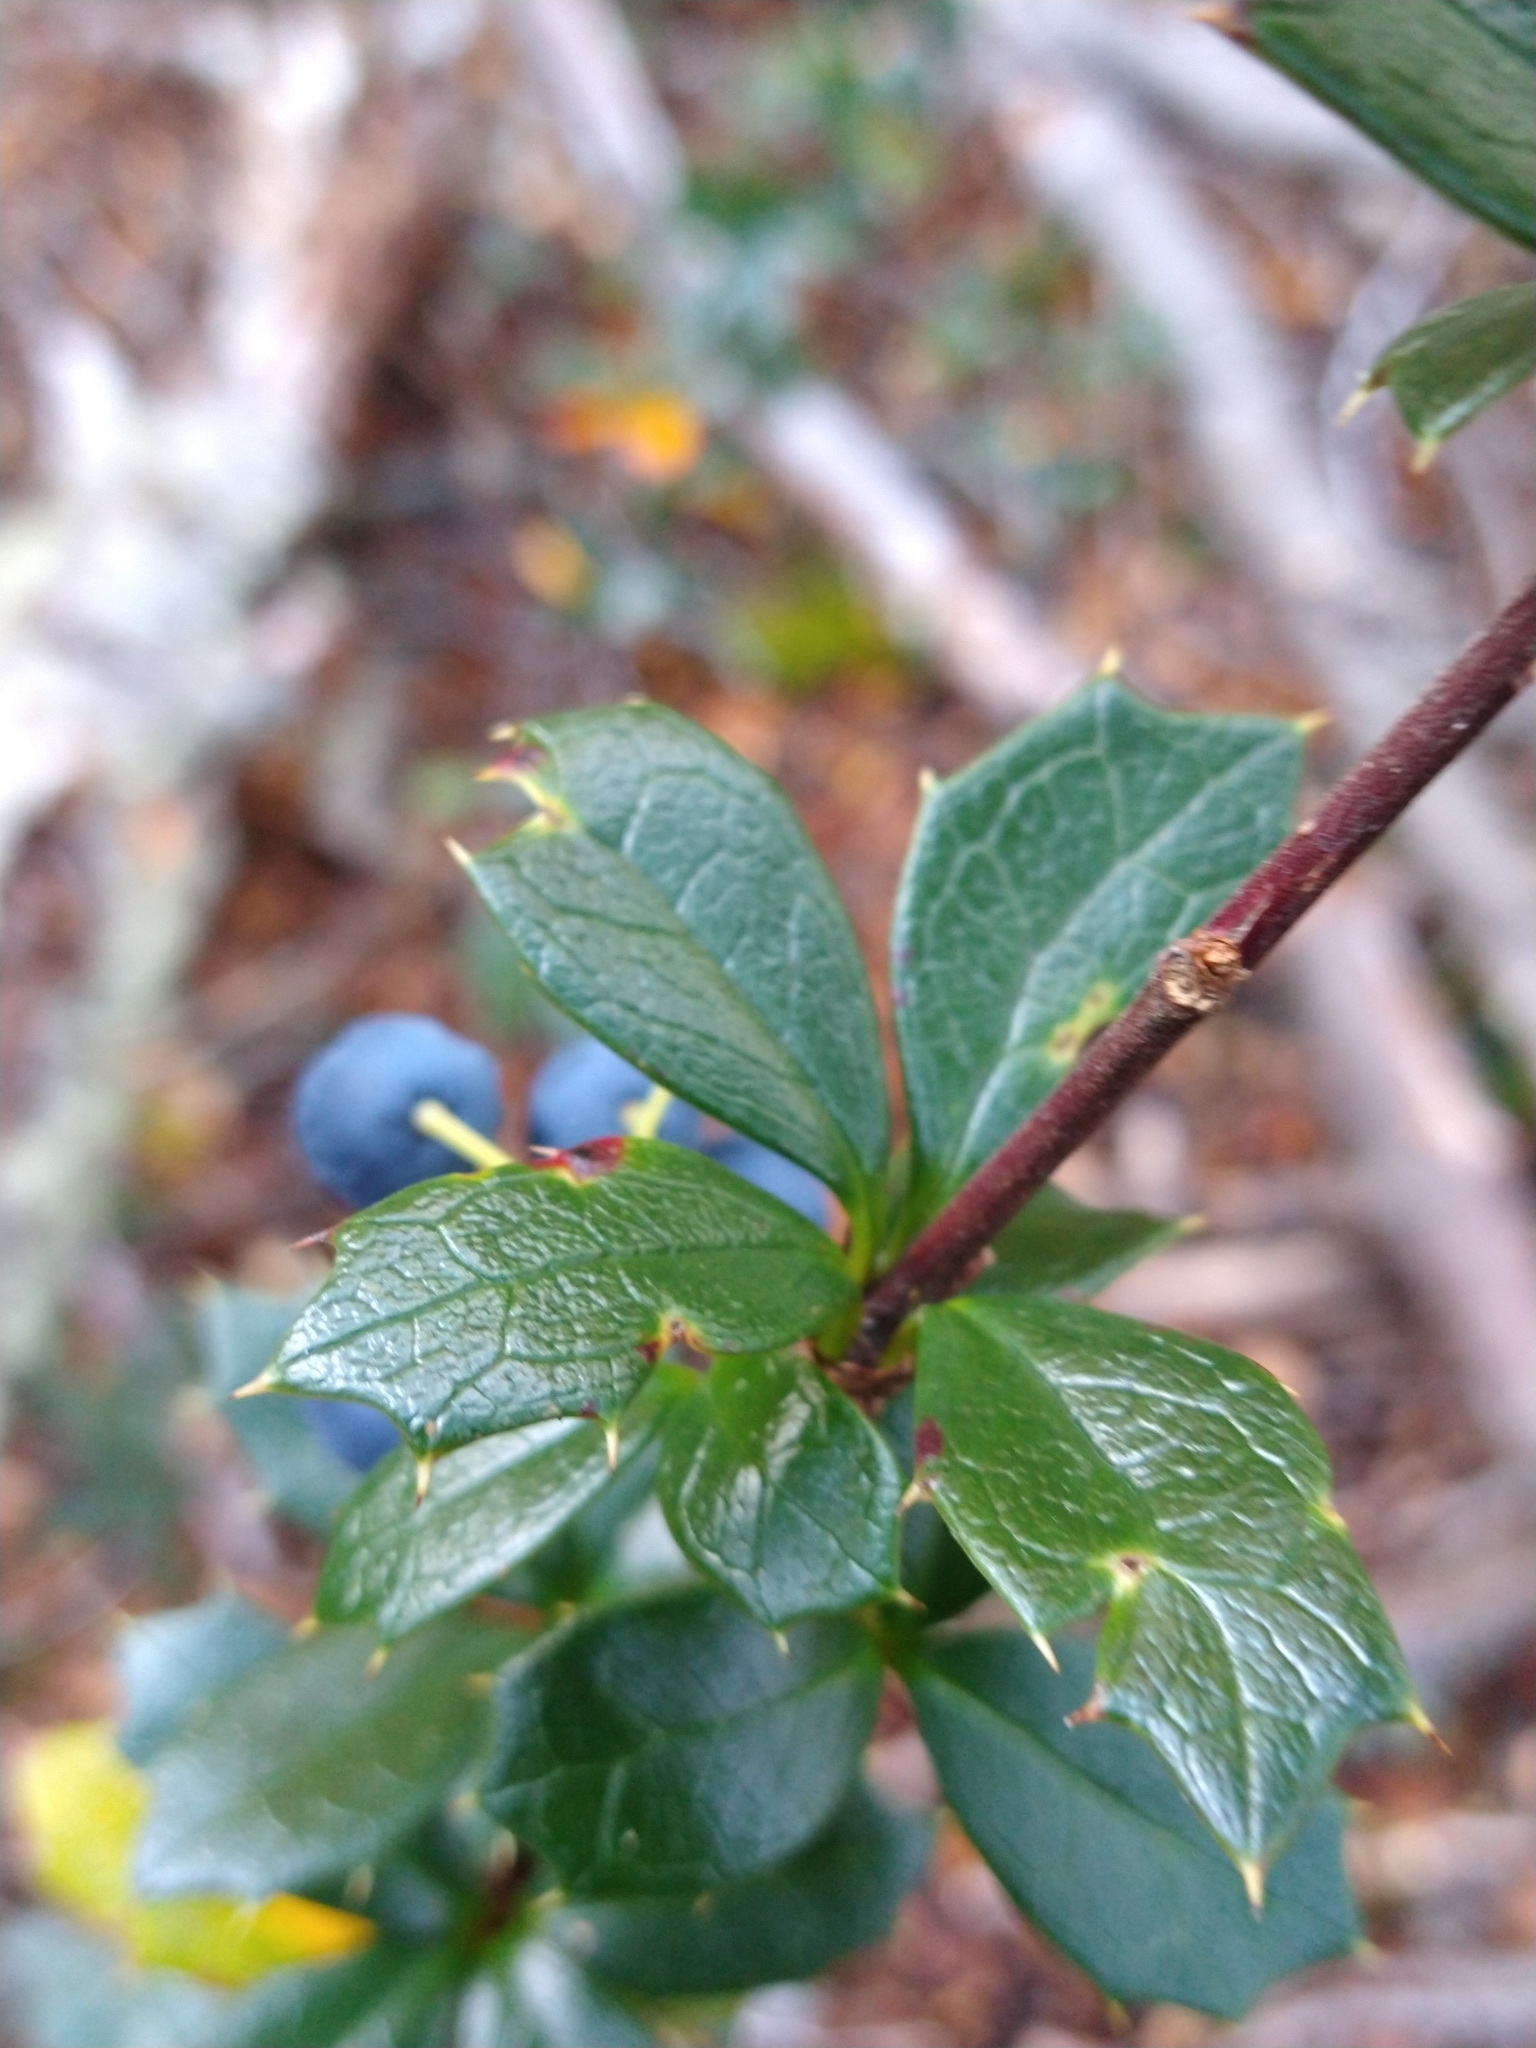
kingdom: Plantae
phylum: Tracheophyta
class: Magnoliopsida
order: Ranunculales
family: Berberidaceae
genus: Berberis
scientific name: Berberis ilicifolia
